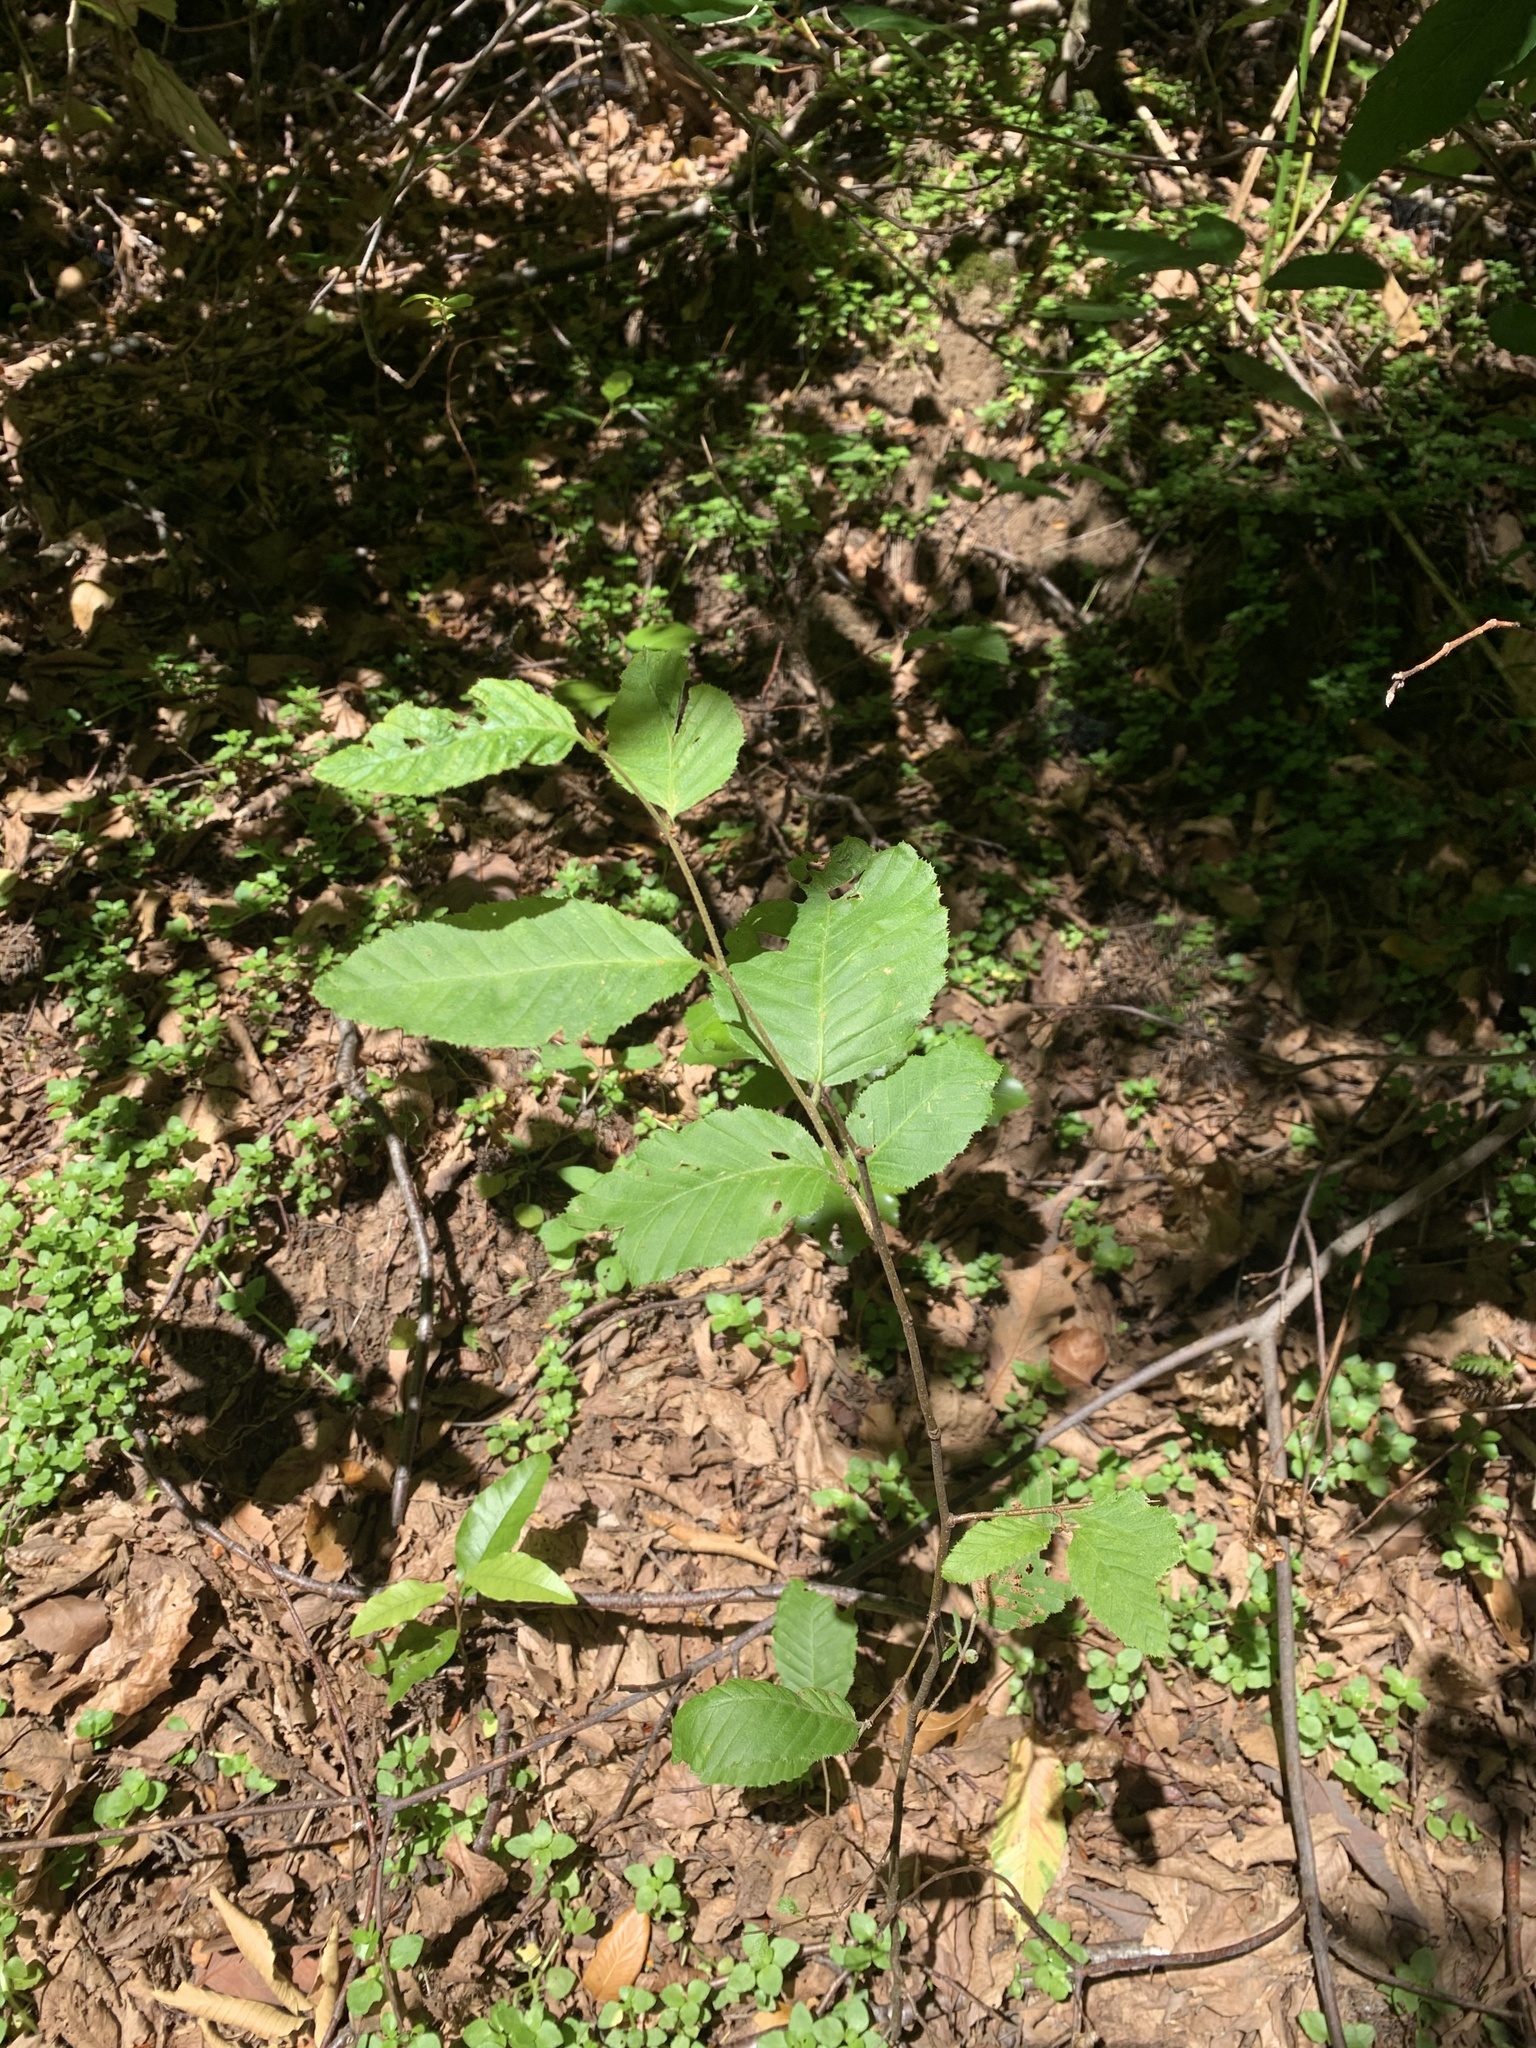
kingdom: Plantae
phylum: Tracheophyta
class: Magnoliopsida
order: Fagales
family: Nothofagaceae
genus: Nothofagus
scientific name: Nothofagus alpina
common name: Rauli
